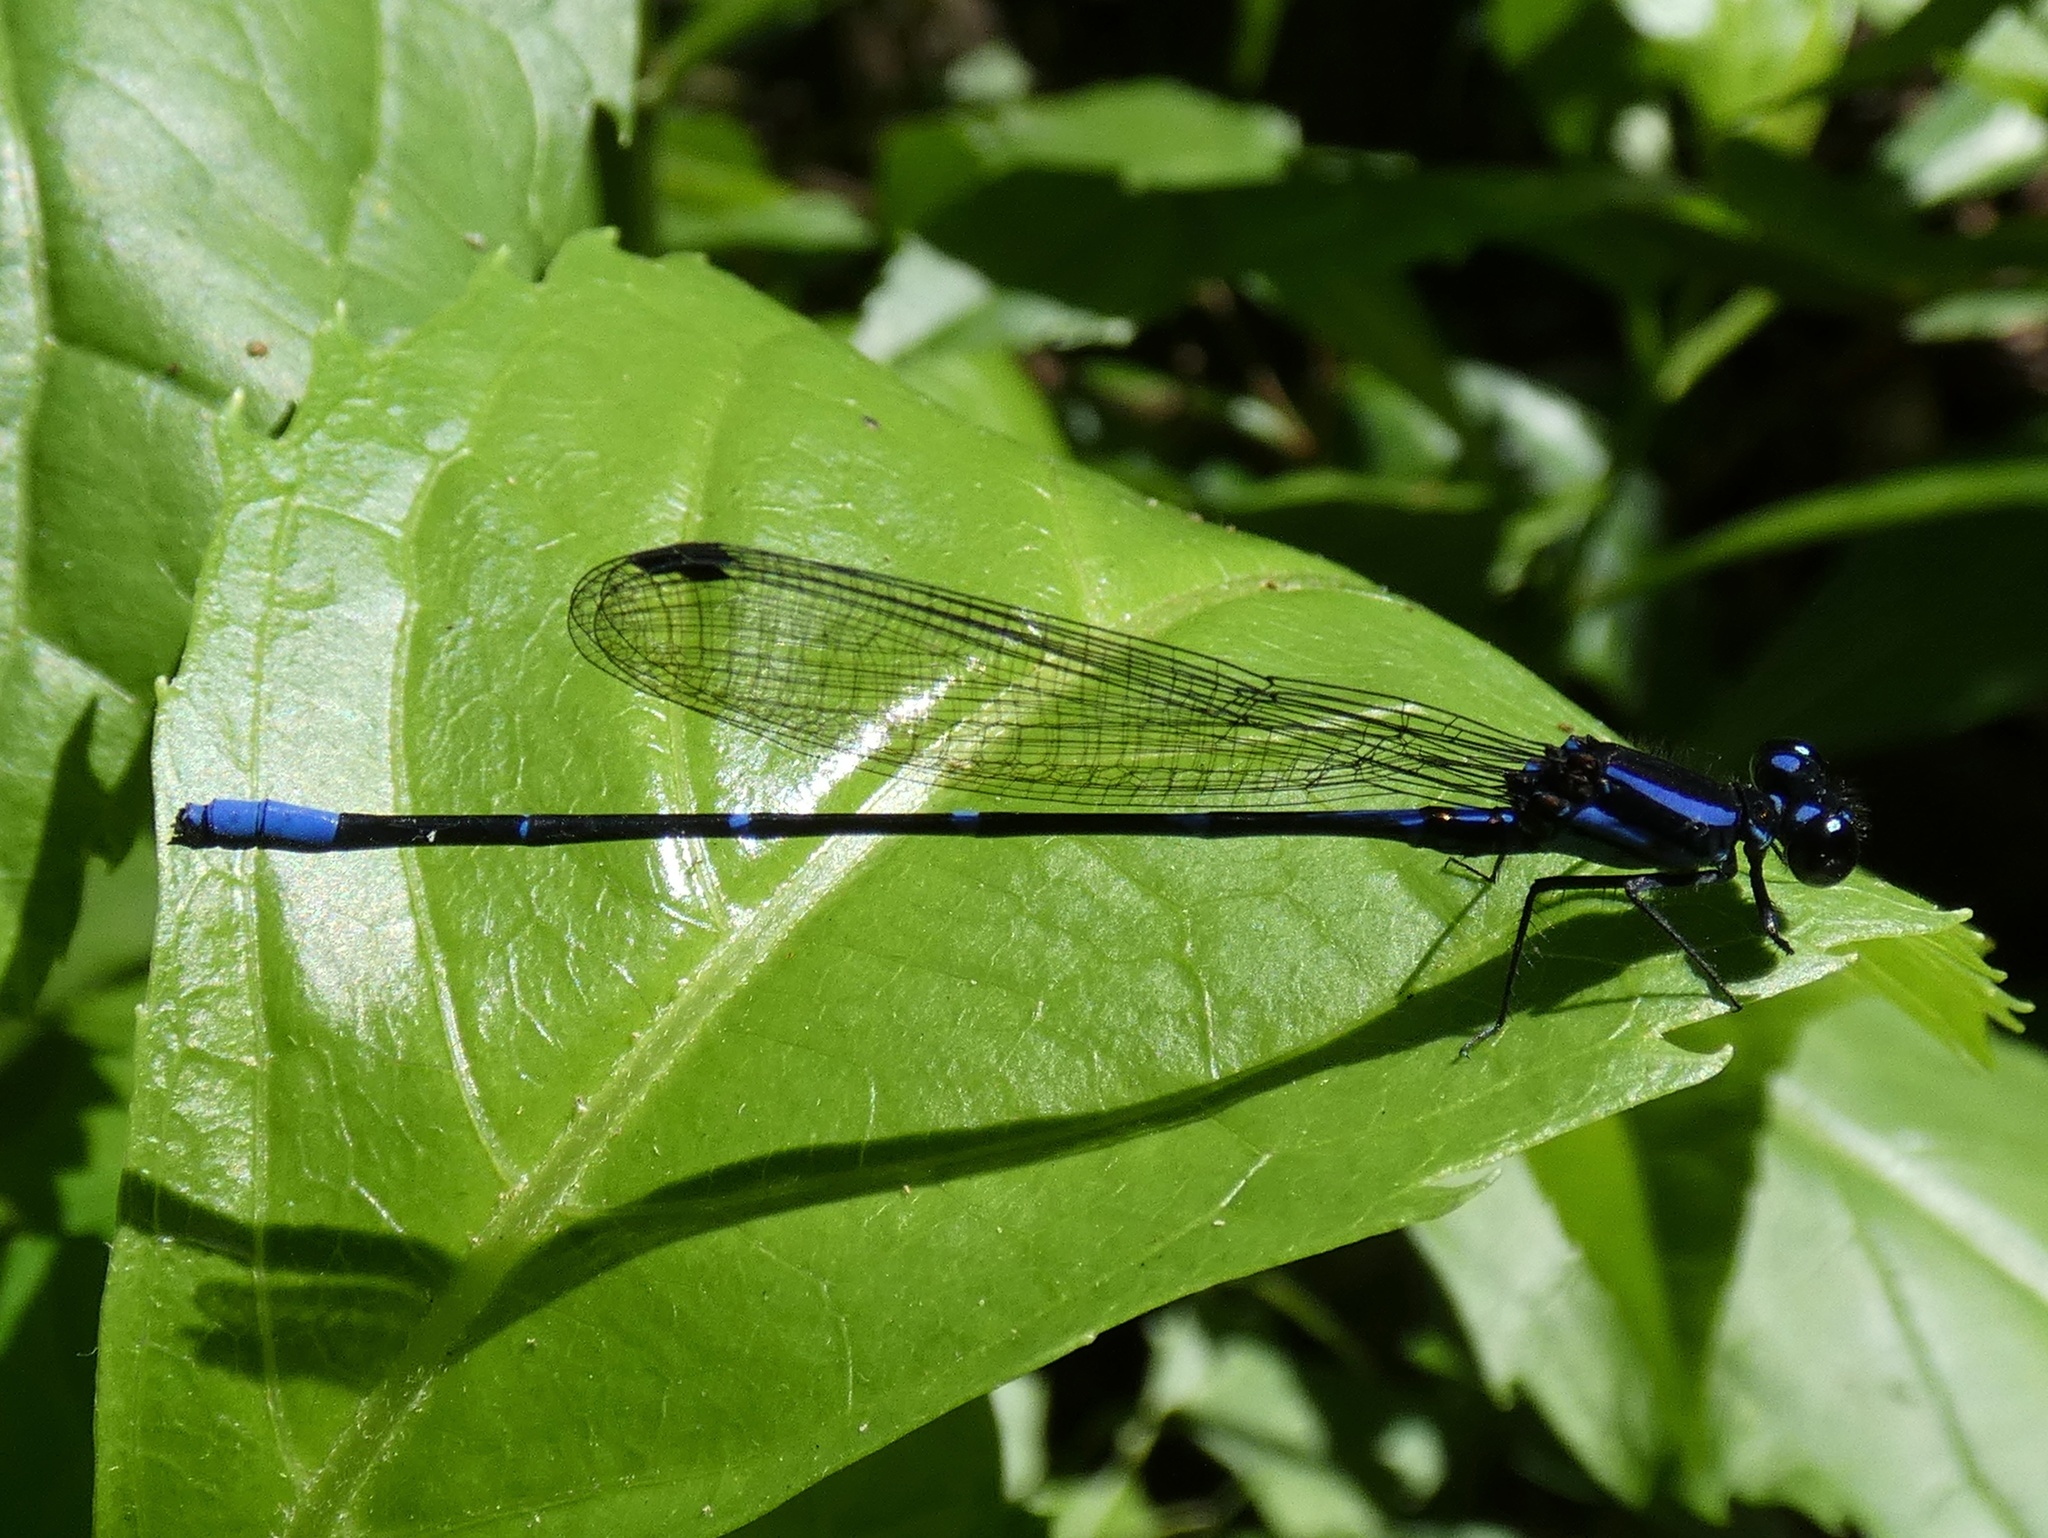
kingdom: Animalia
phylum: Arthropoda
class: Insecta
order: Odonata
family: Coenagrionidae
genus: Argia
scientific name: Argia oculata
